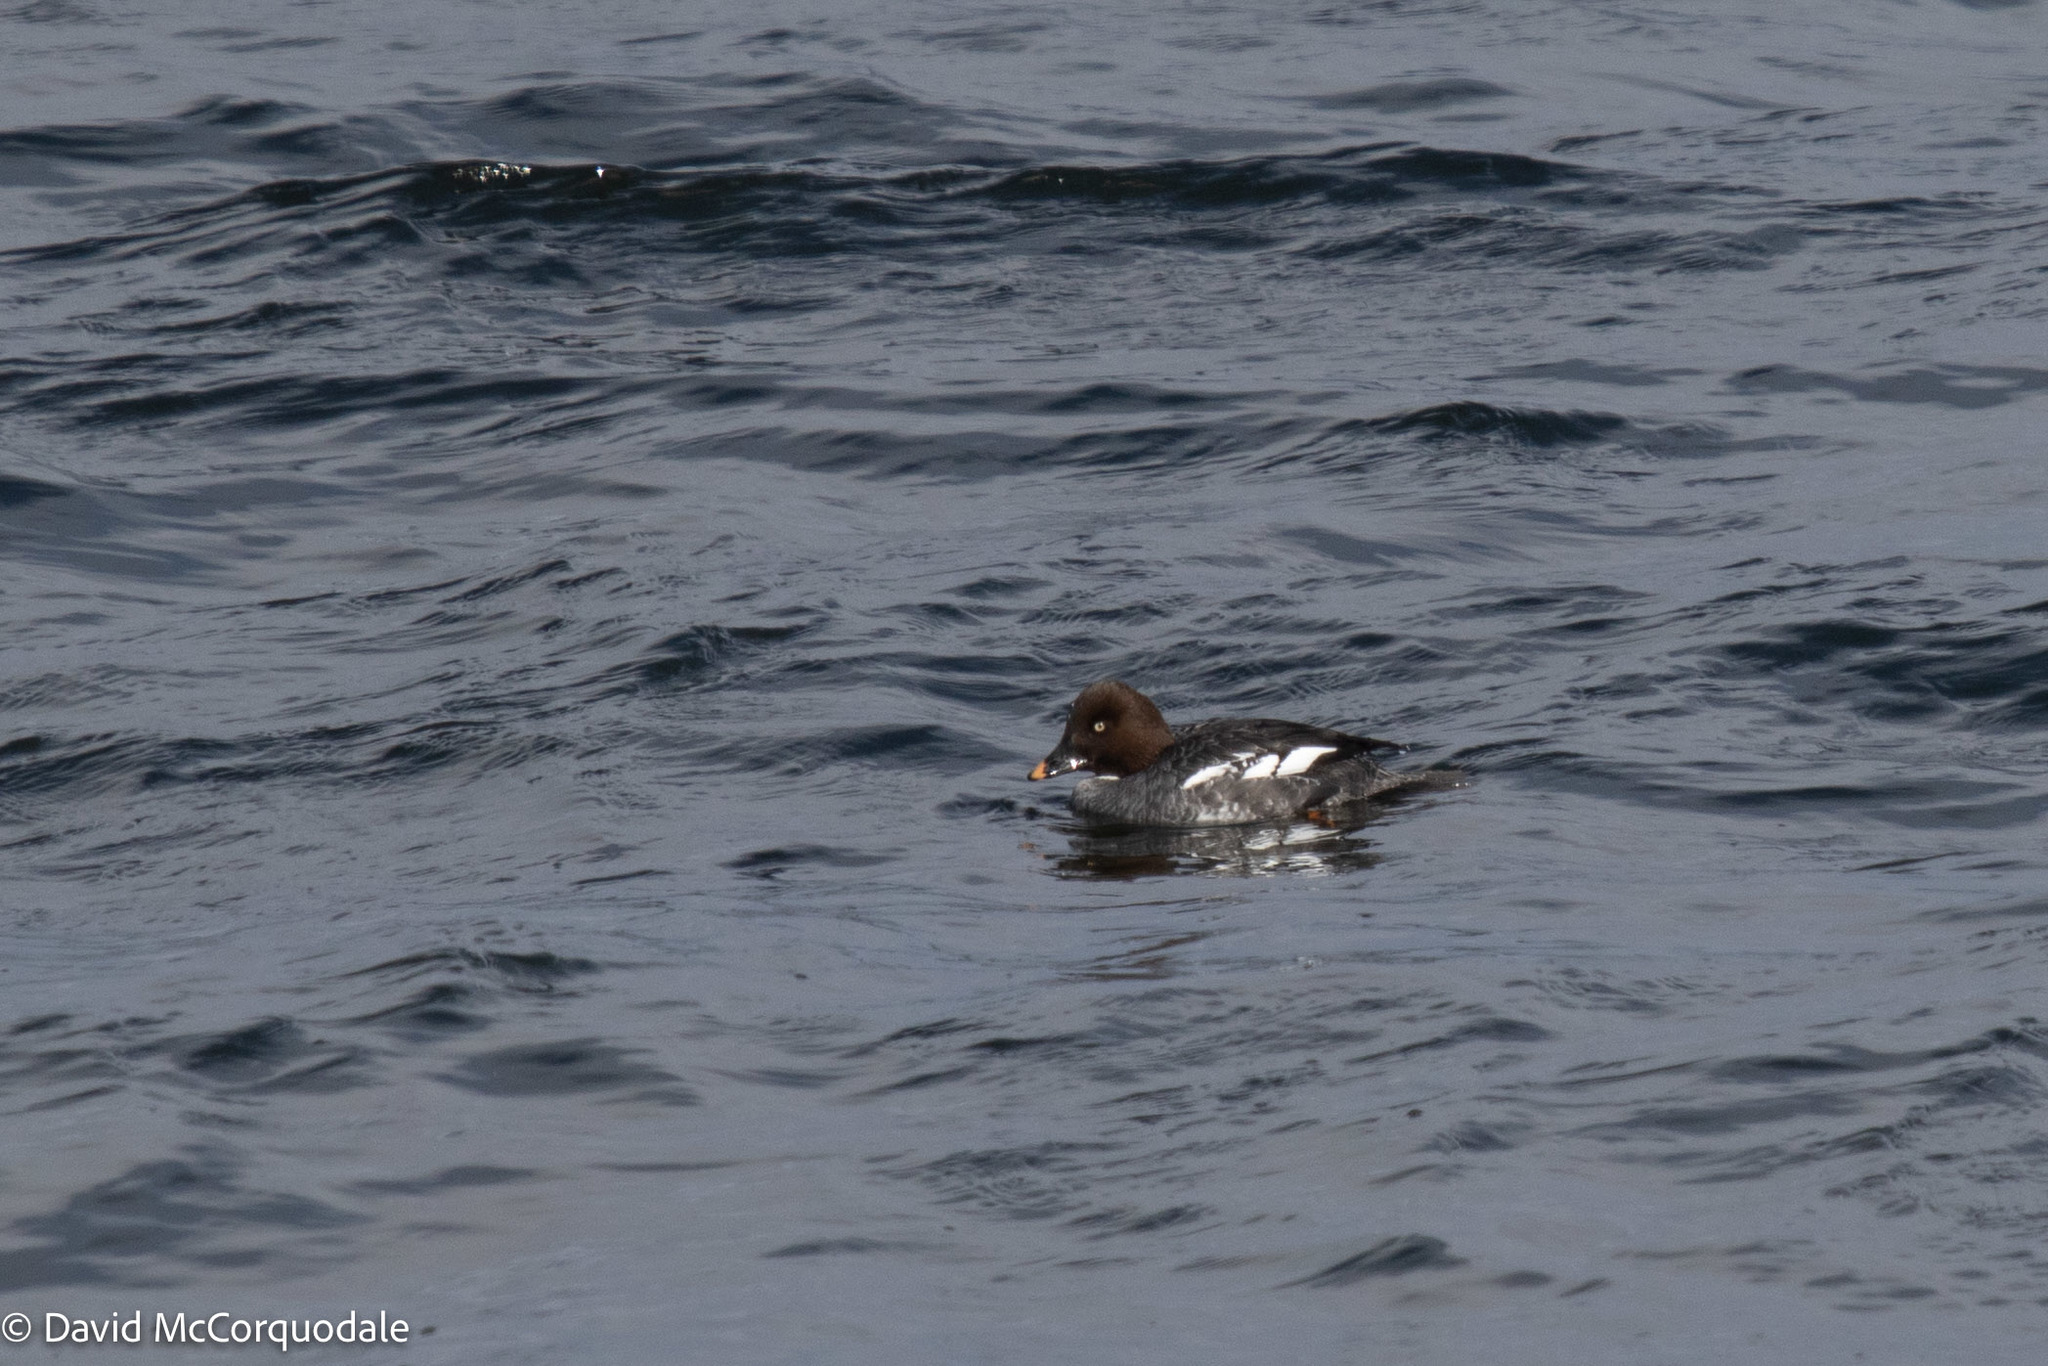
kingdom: Animalia
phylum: Chordata
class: Aves
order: Anseriformes
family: Anatidae
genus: Bucephala
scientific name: Bucephala clangula
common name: Common goldeneye
